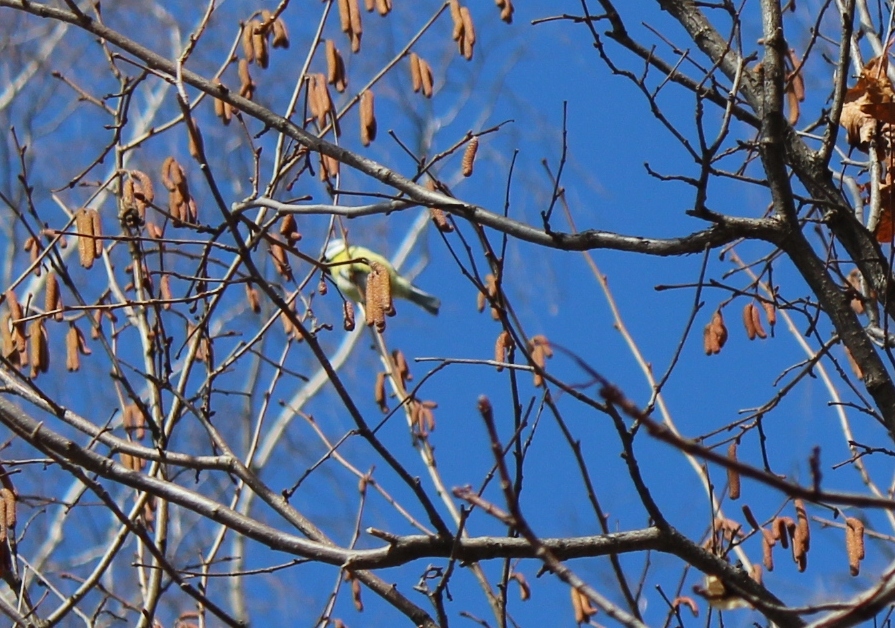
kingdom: Animalia
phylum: Chordata
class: Aves
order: Passeriformes
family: Paridae
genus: Cyanistes
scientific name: Cyanistes caeruleus
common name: Eurasian blue tit
